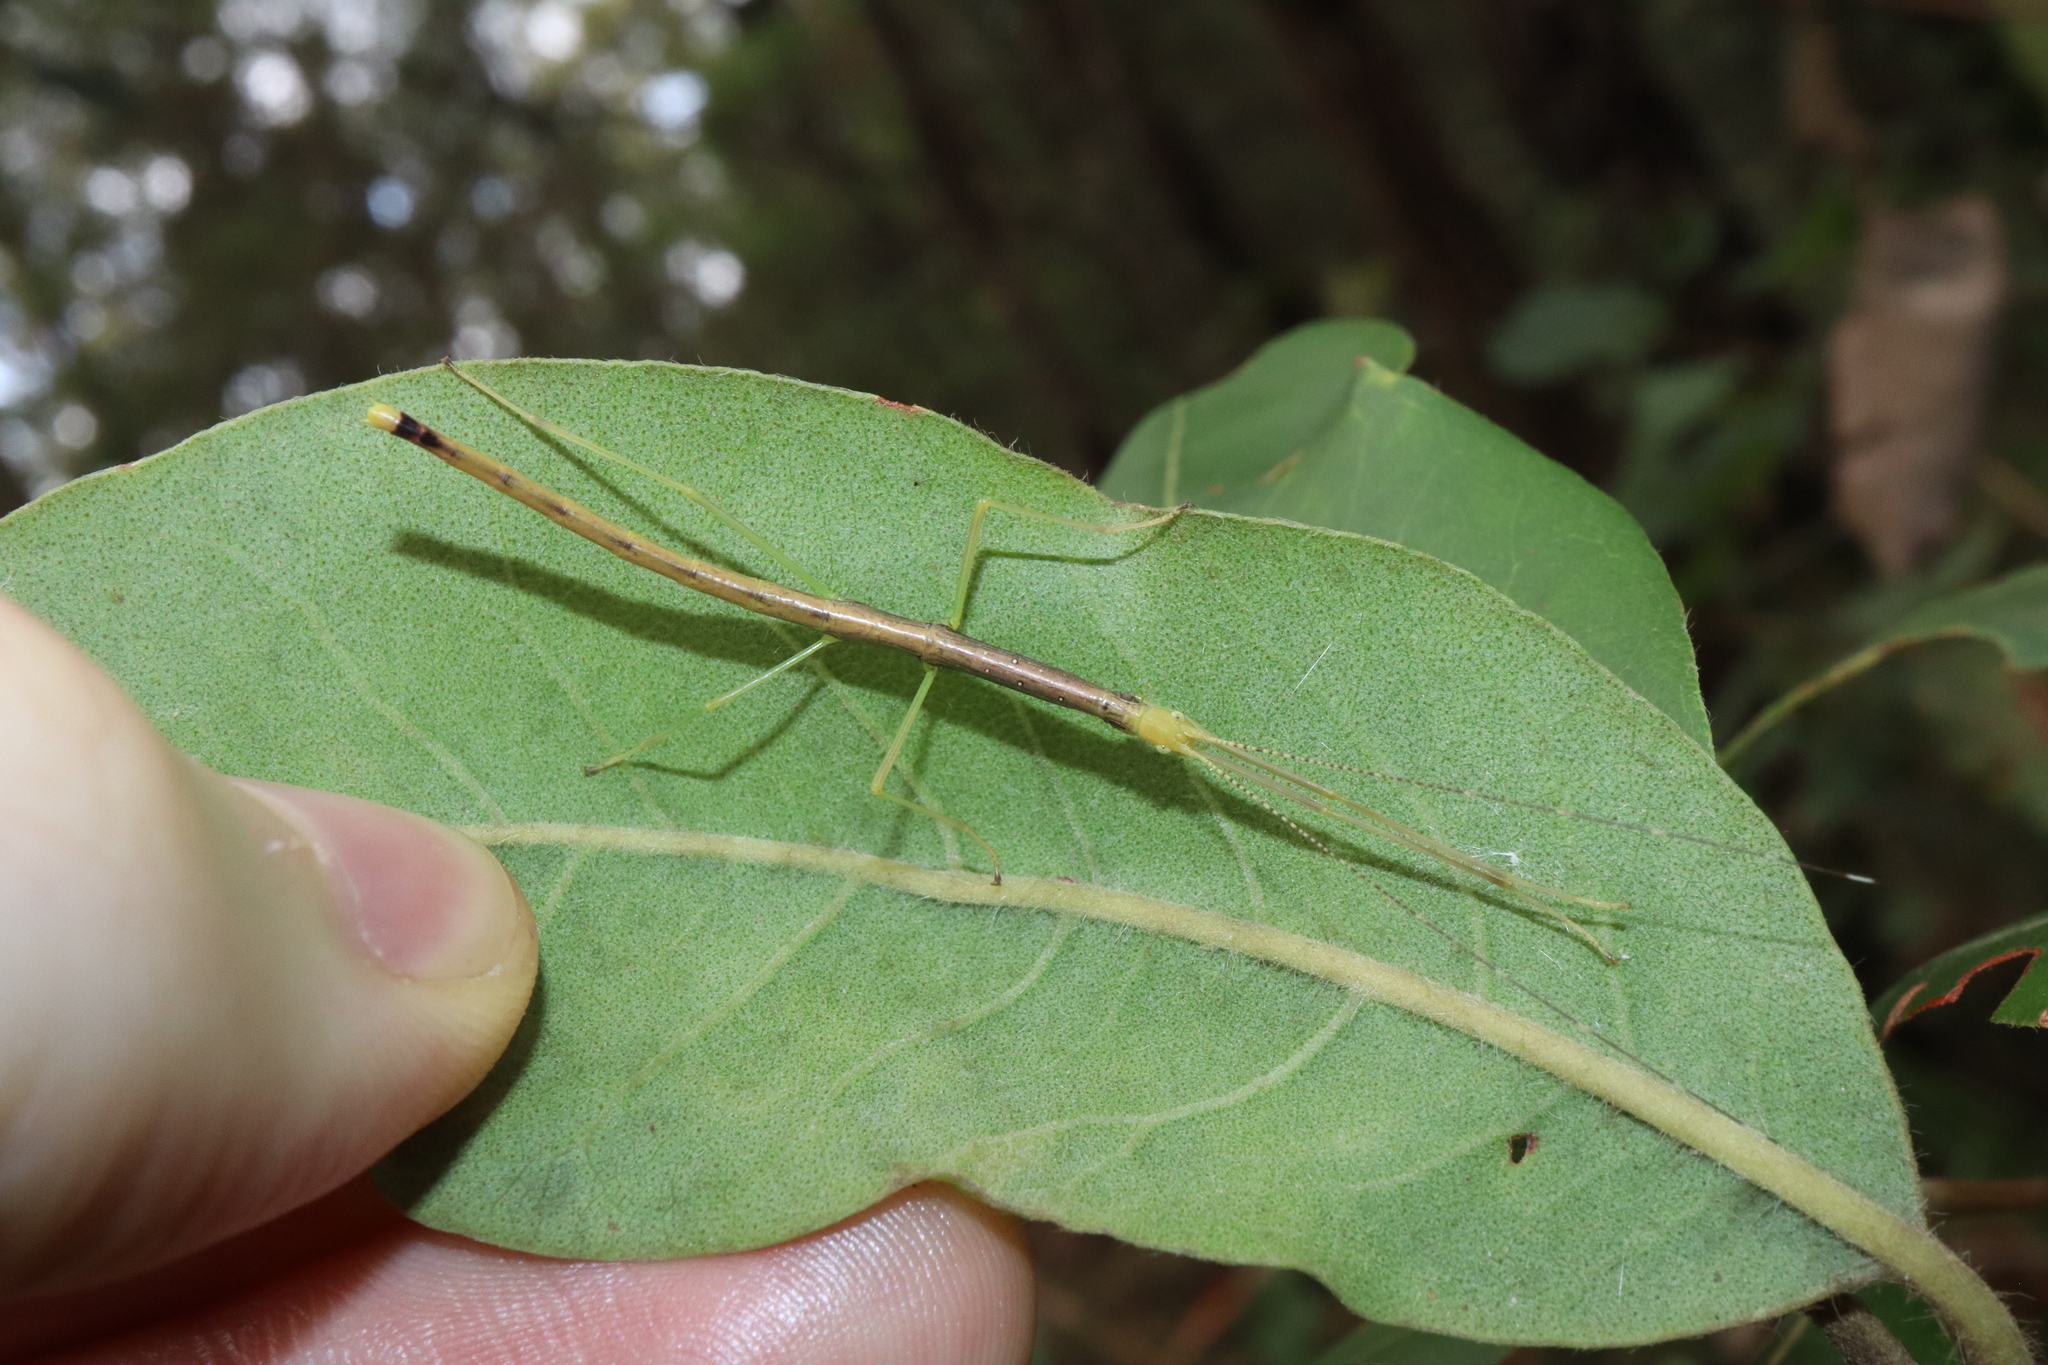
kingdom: Animalia
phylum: Arthropoda
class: Insecta
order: Phasmida
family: Lonchodidae
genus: Candovia
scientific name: Candovia strumosa
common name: Richmond river stick-insect
